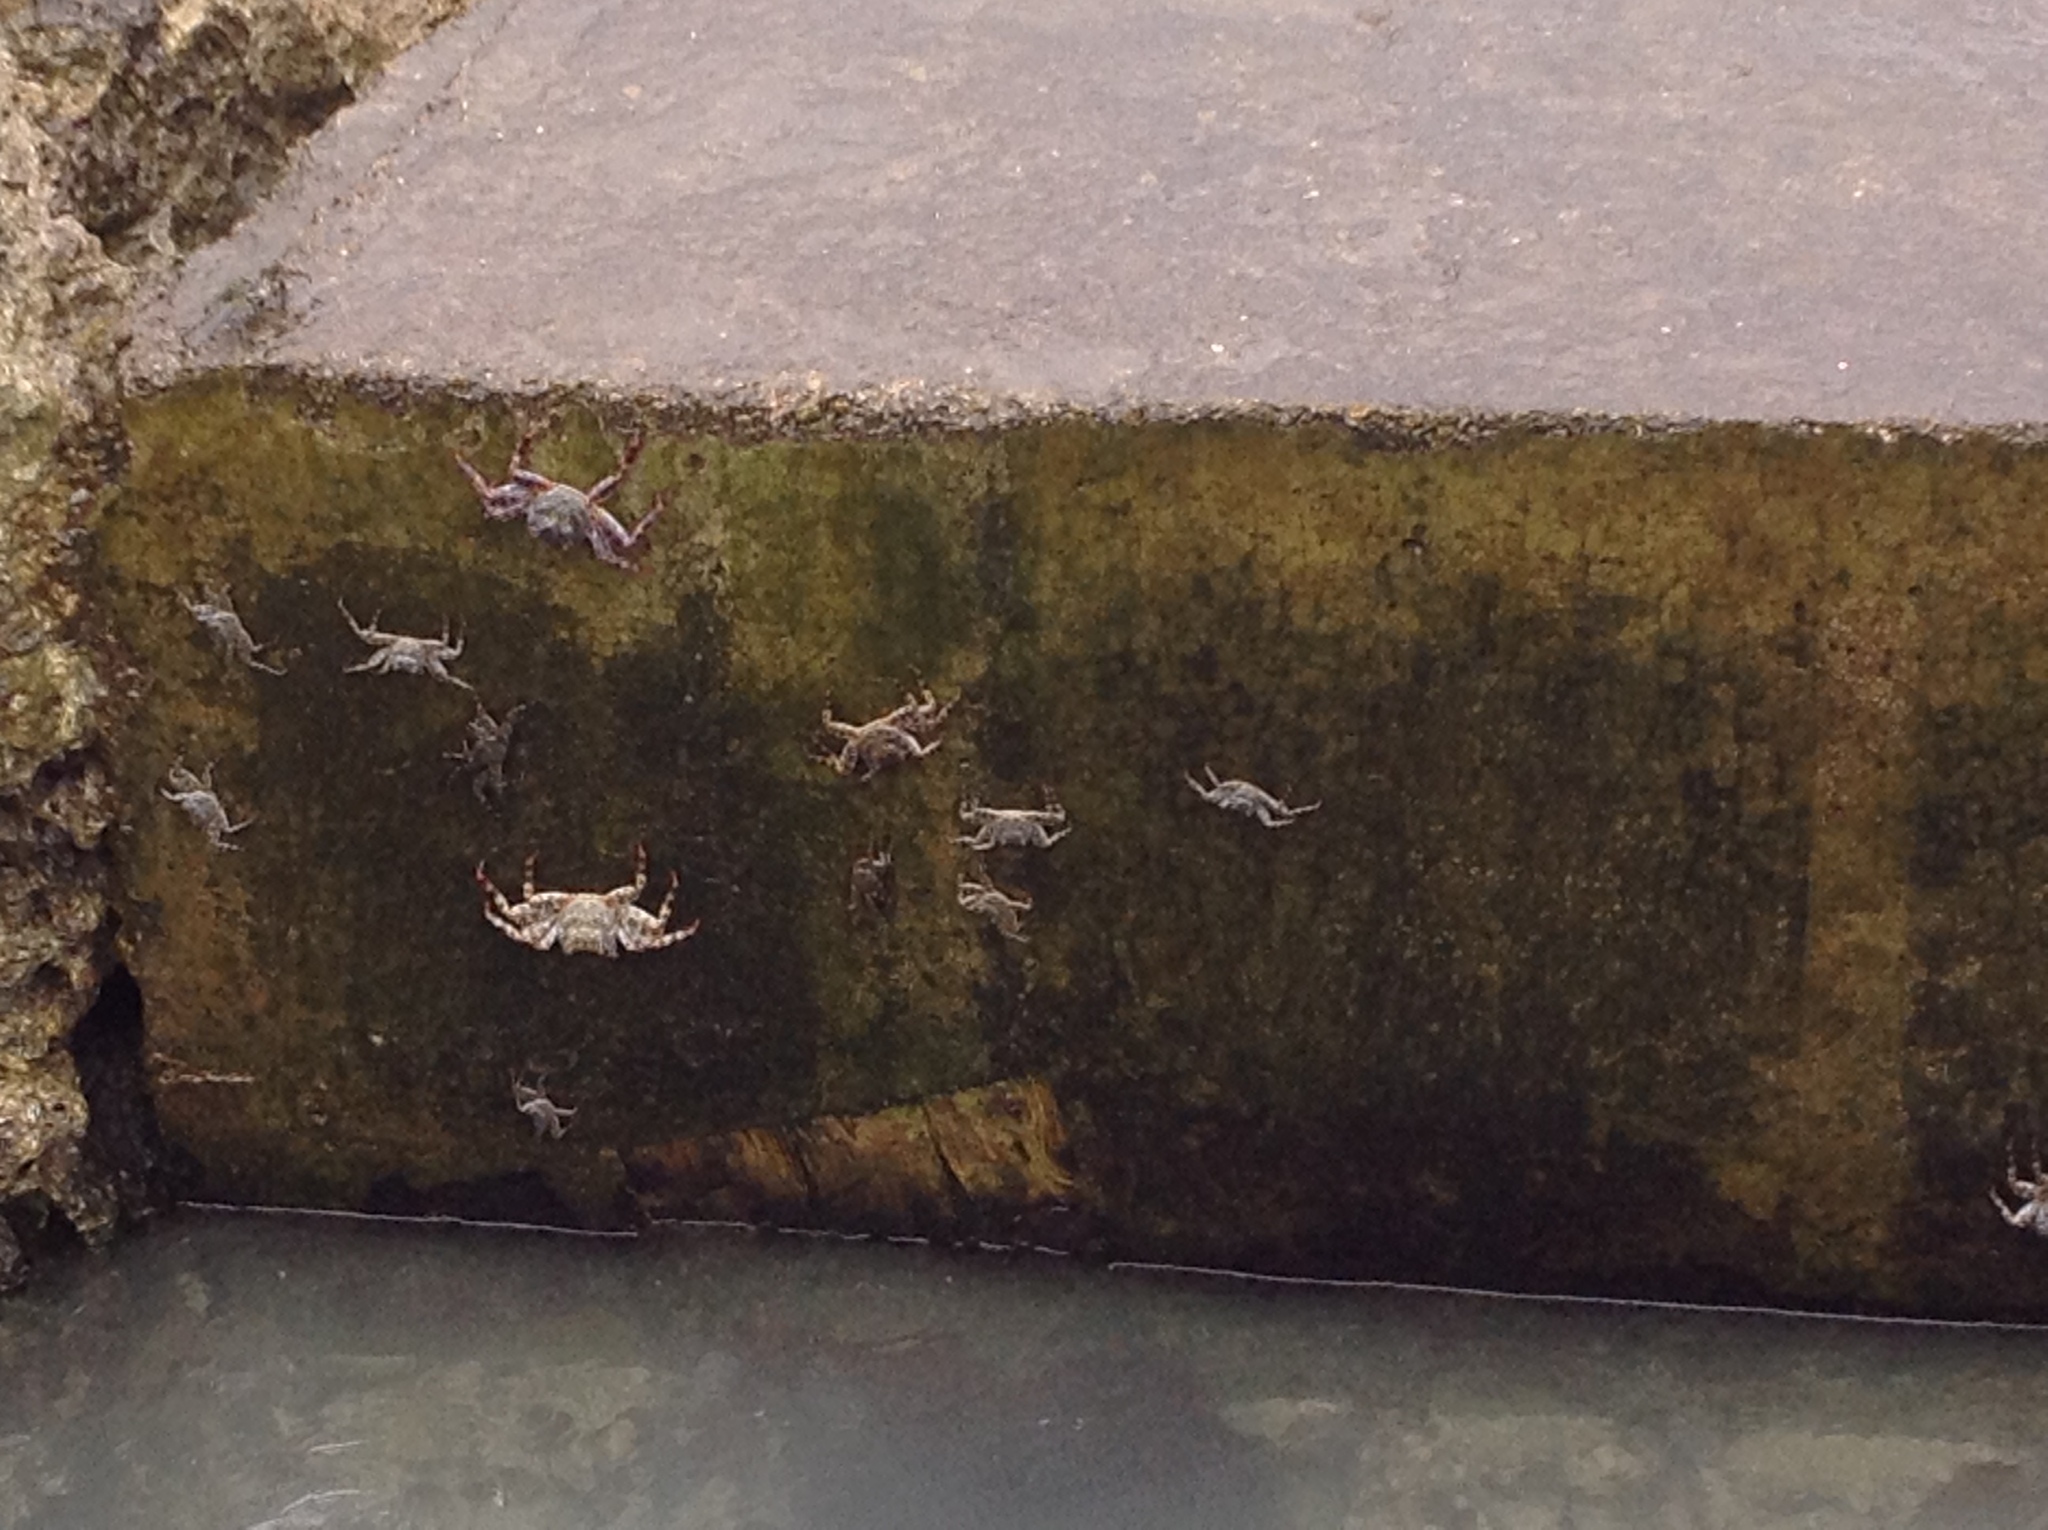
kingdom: Animalia
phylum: Arthropoda
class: Malacostraca
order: Decapoda
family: Grapsidae
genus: Grapsus
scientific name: Grapsus grapsus
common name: Sally lightfoot
